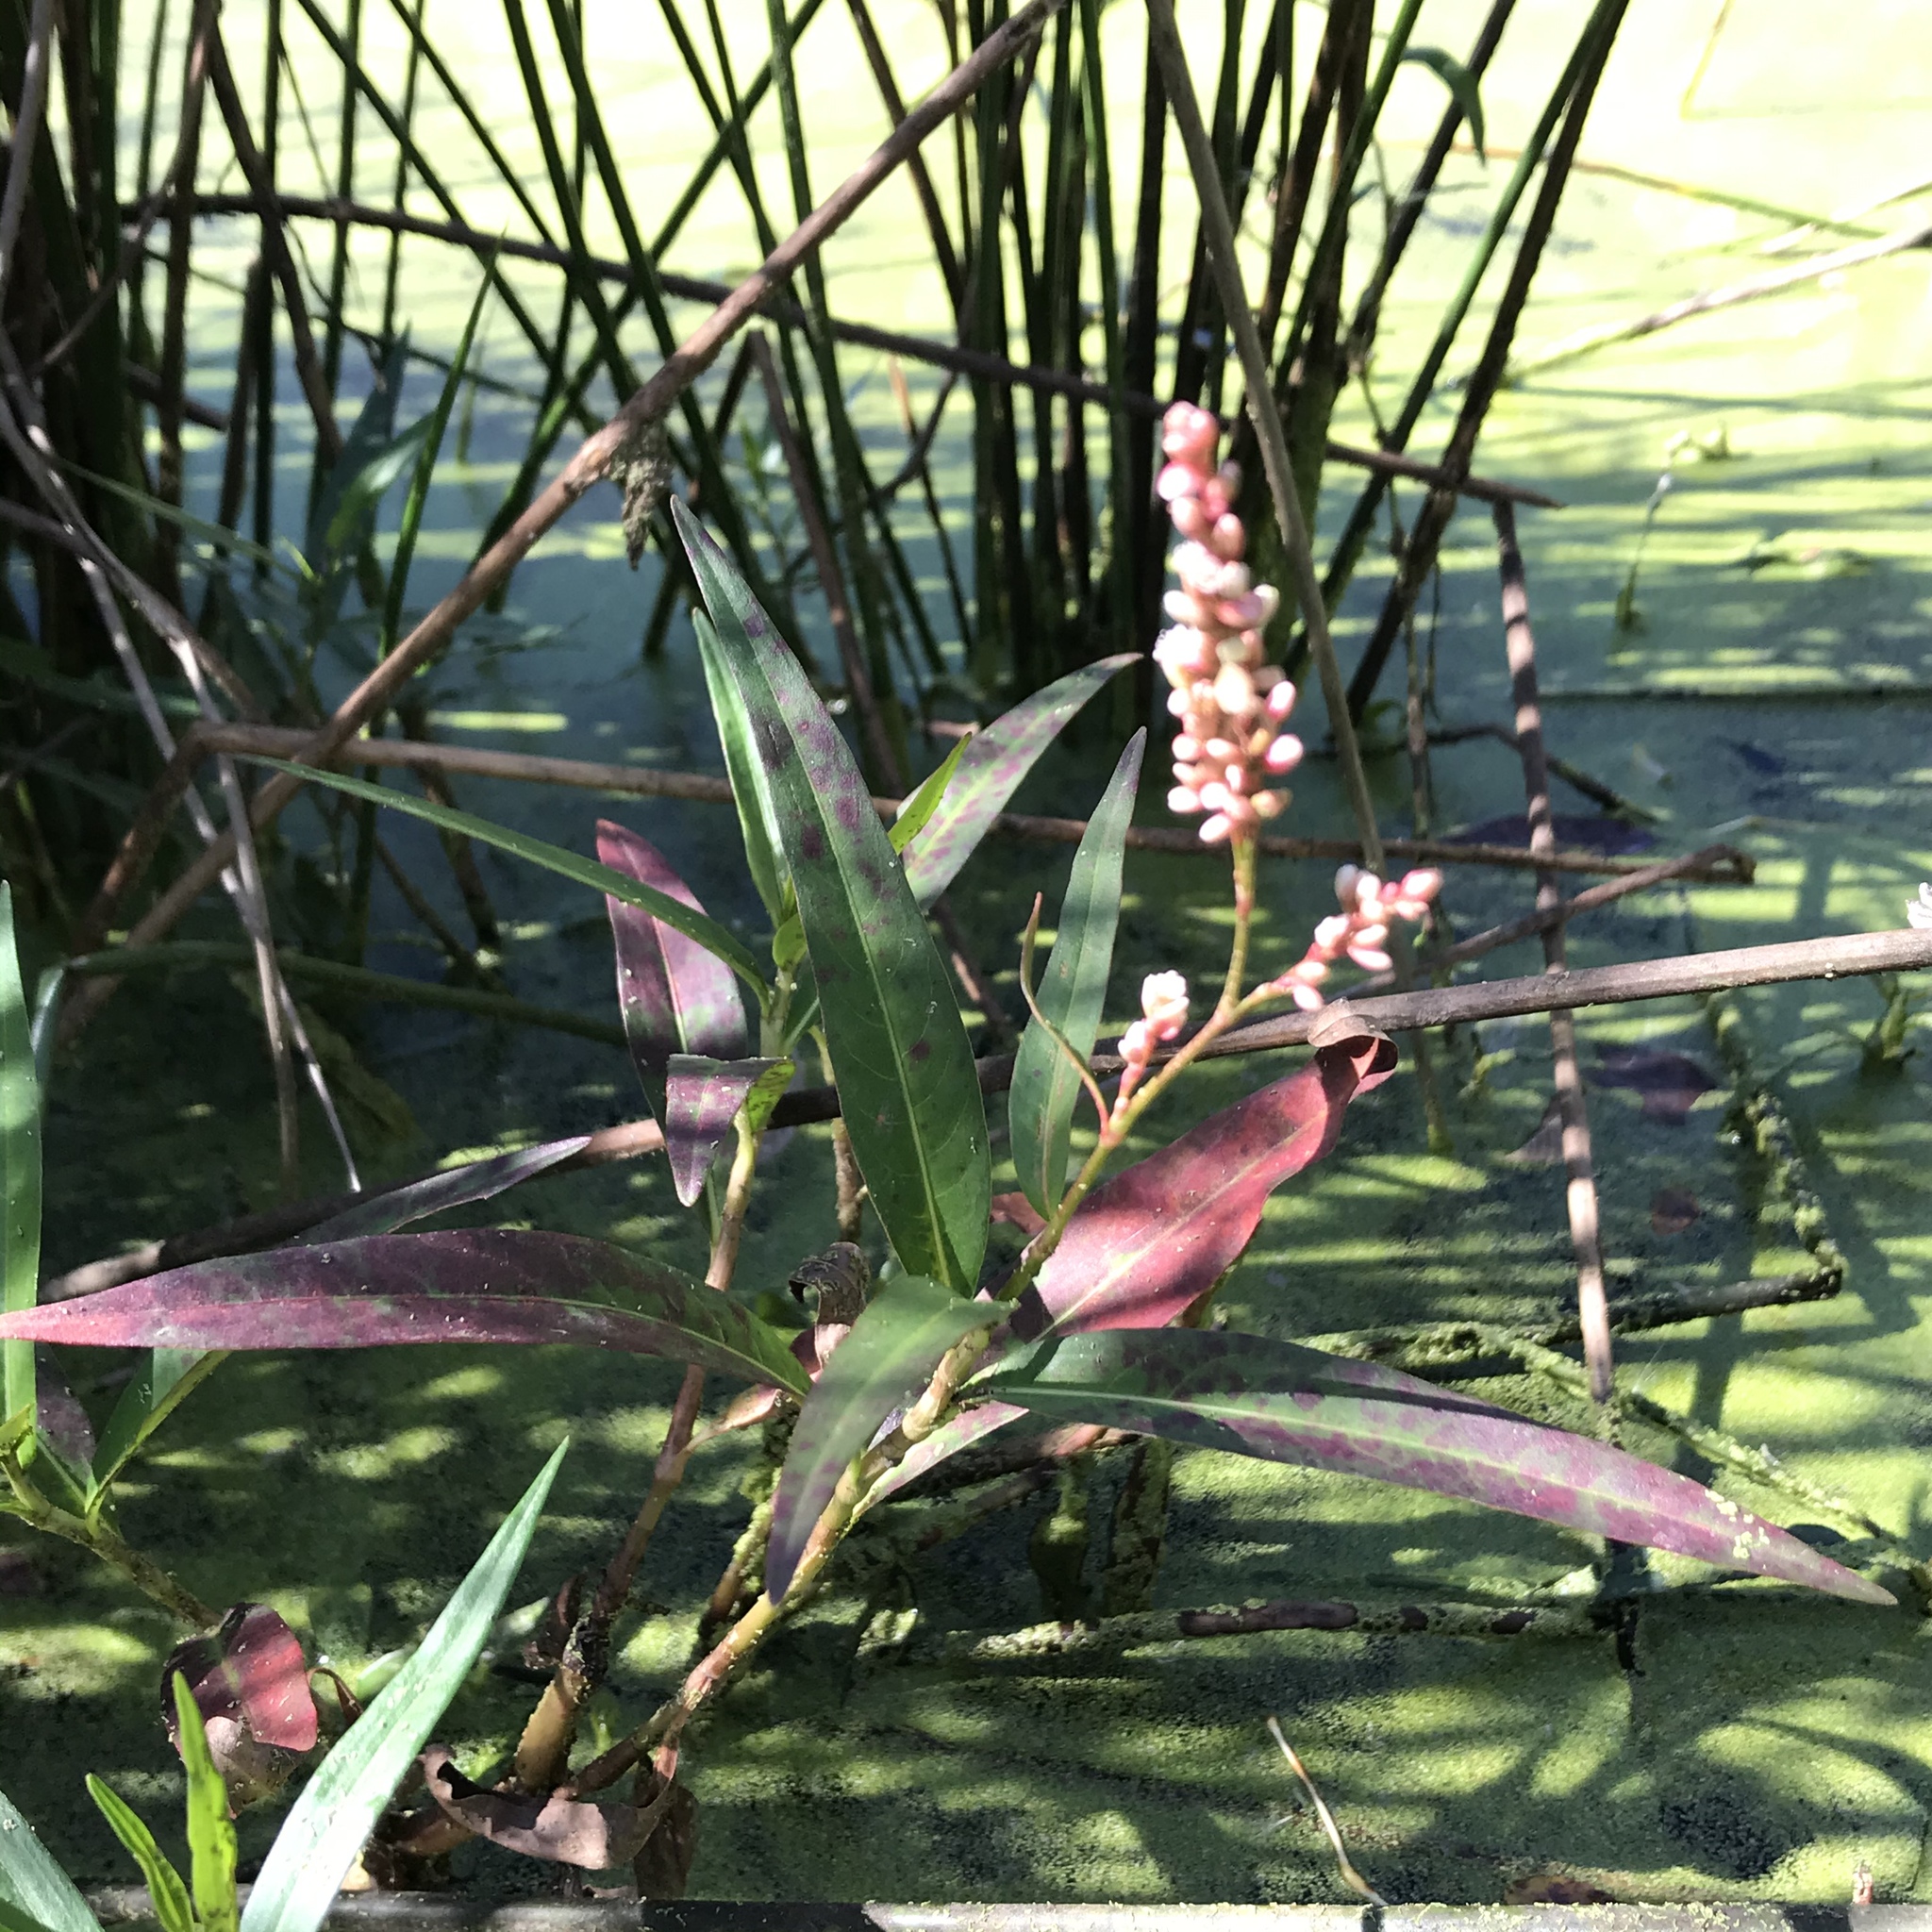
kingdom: Plantae
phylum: Tracheophyta
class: Magnoliopsida
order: Caryophyllales
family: Polygonaceae
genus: Persicaria
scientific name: Persicaria hydropiperoides
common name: Swamp smartweed
